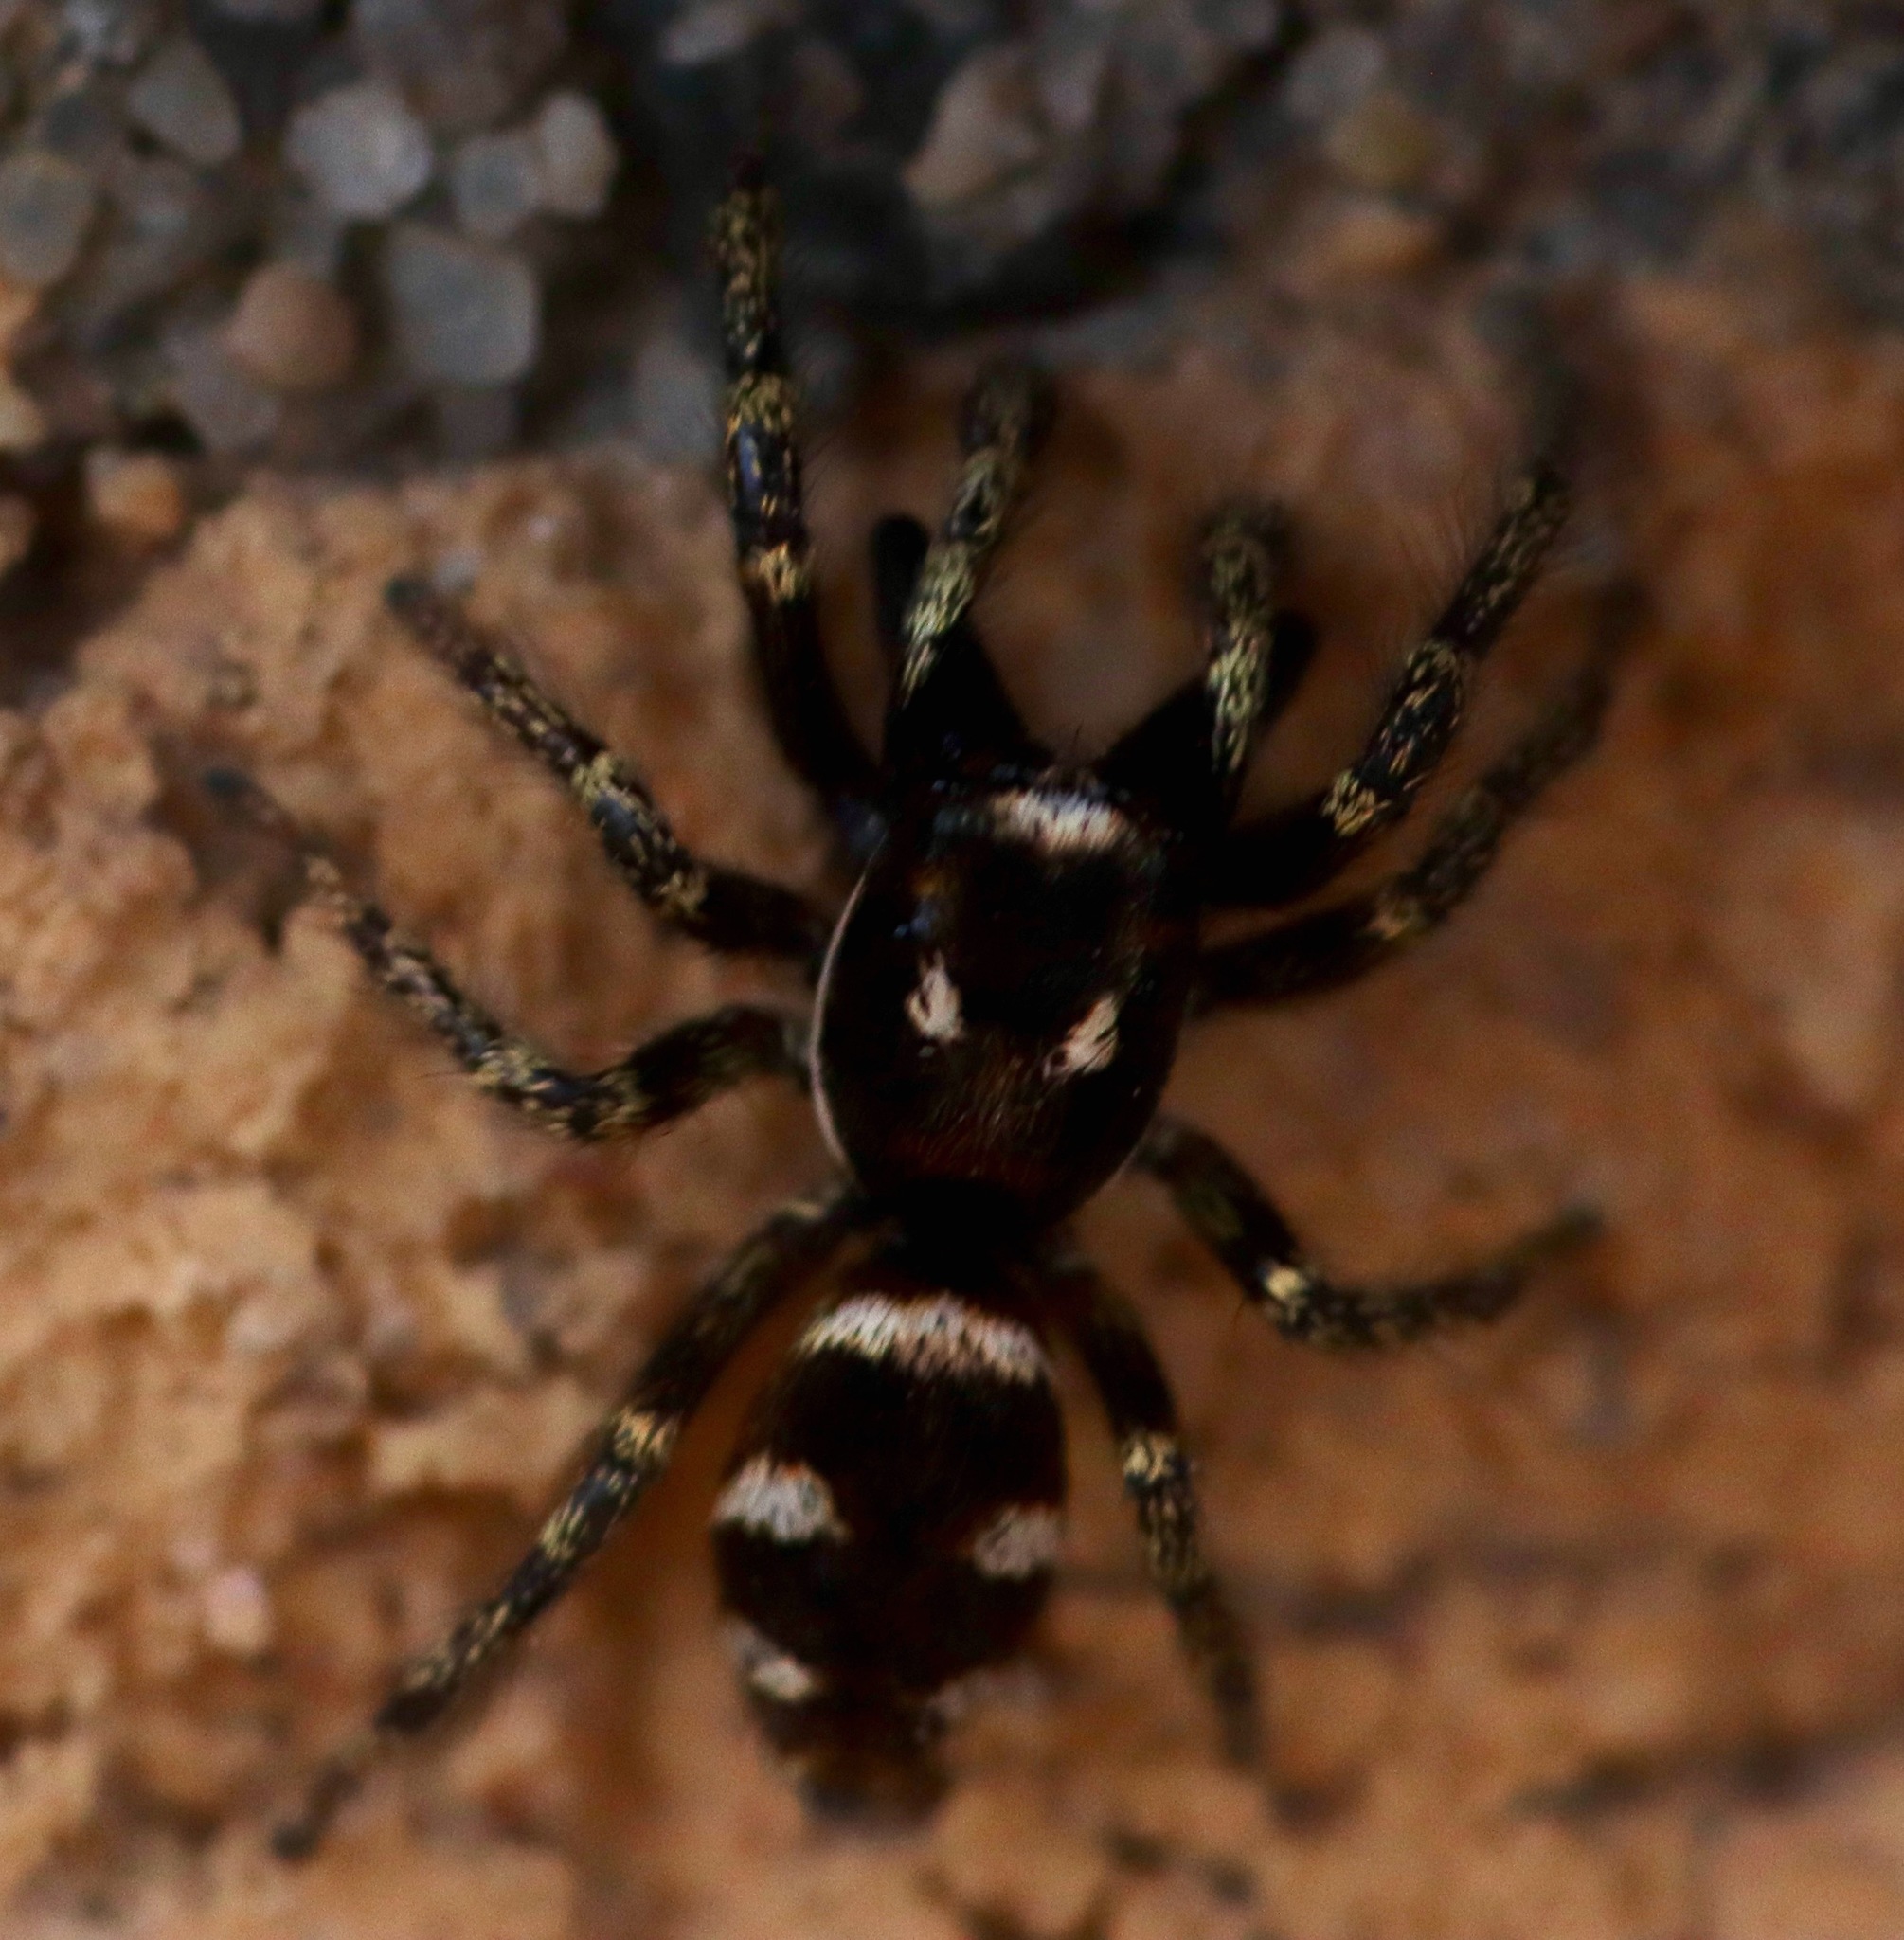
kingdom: Animalia
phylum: Arthropoda
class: Arachnida
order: Araneae
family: Salticidae
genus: Salticus
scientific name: Salticus scenicus
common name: Zebra jumper
